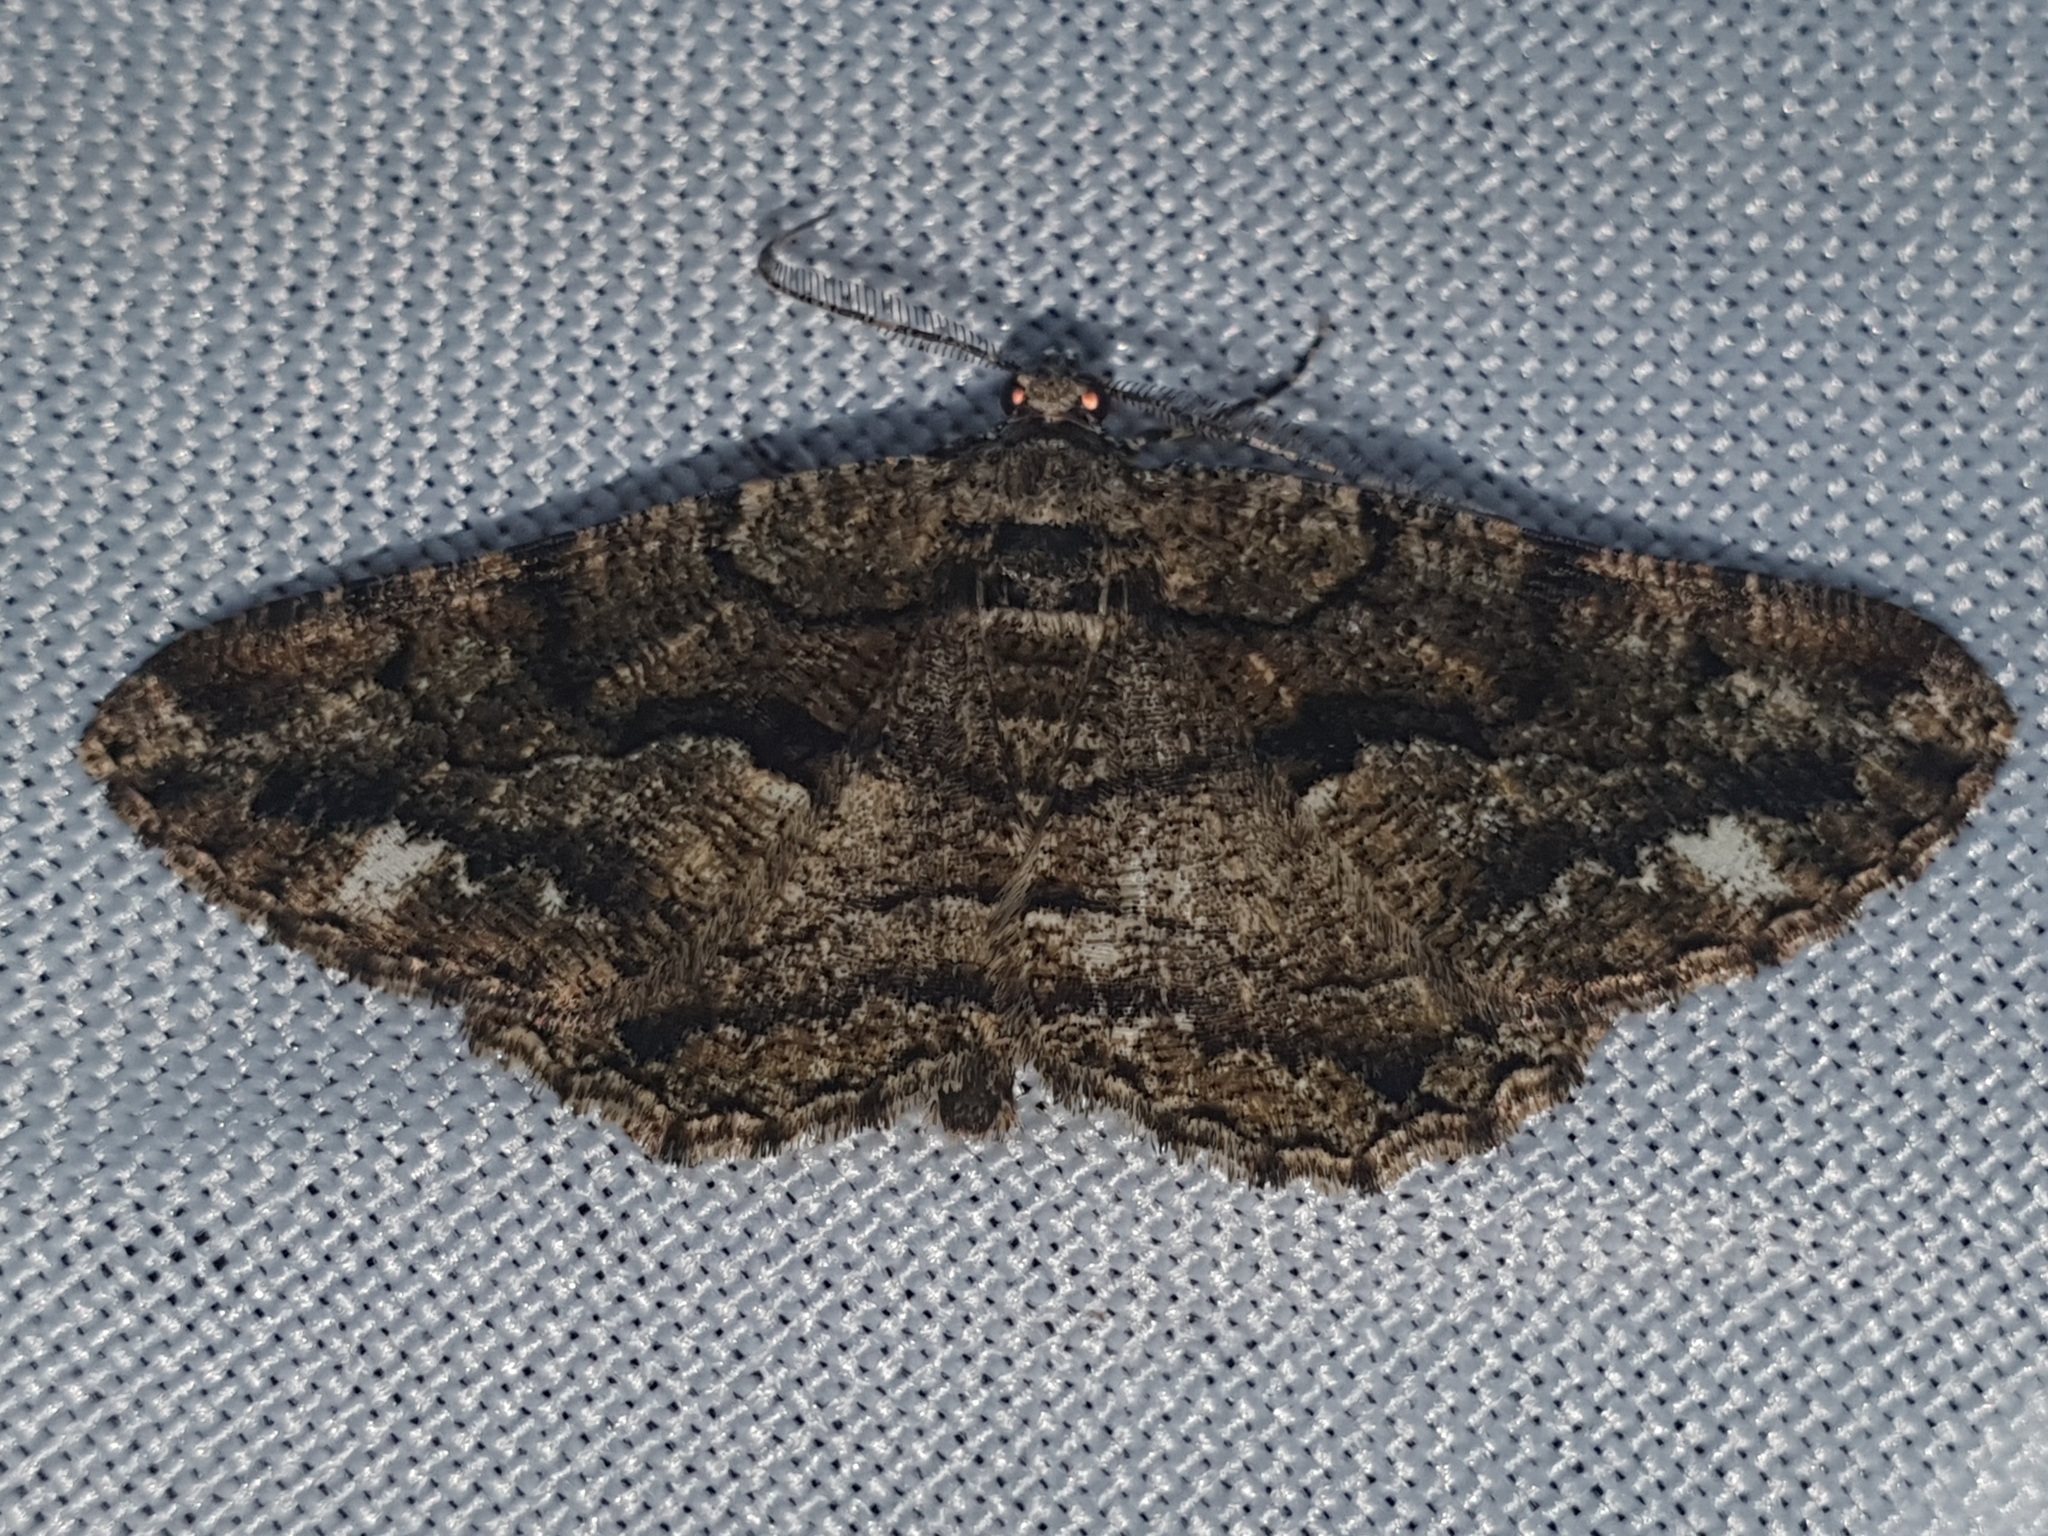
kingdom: Animalia
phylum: Arthropoda
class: Insecta
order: Lepidoptera
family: Geometridae
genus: Peribatodes
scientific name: Peribatodes ilicaria
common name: Lydd beauty
